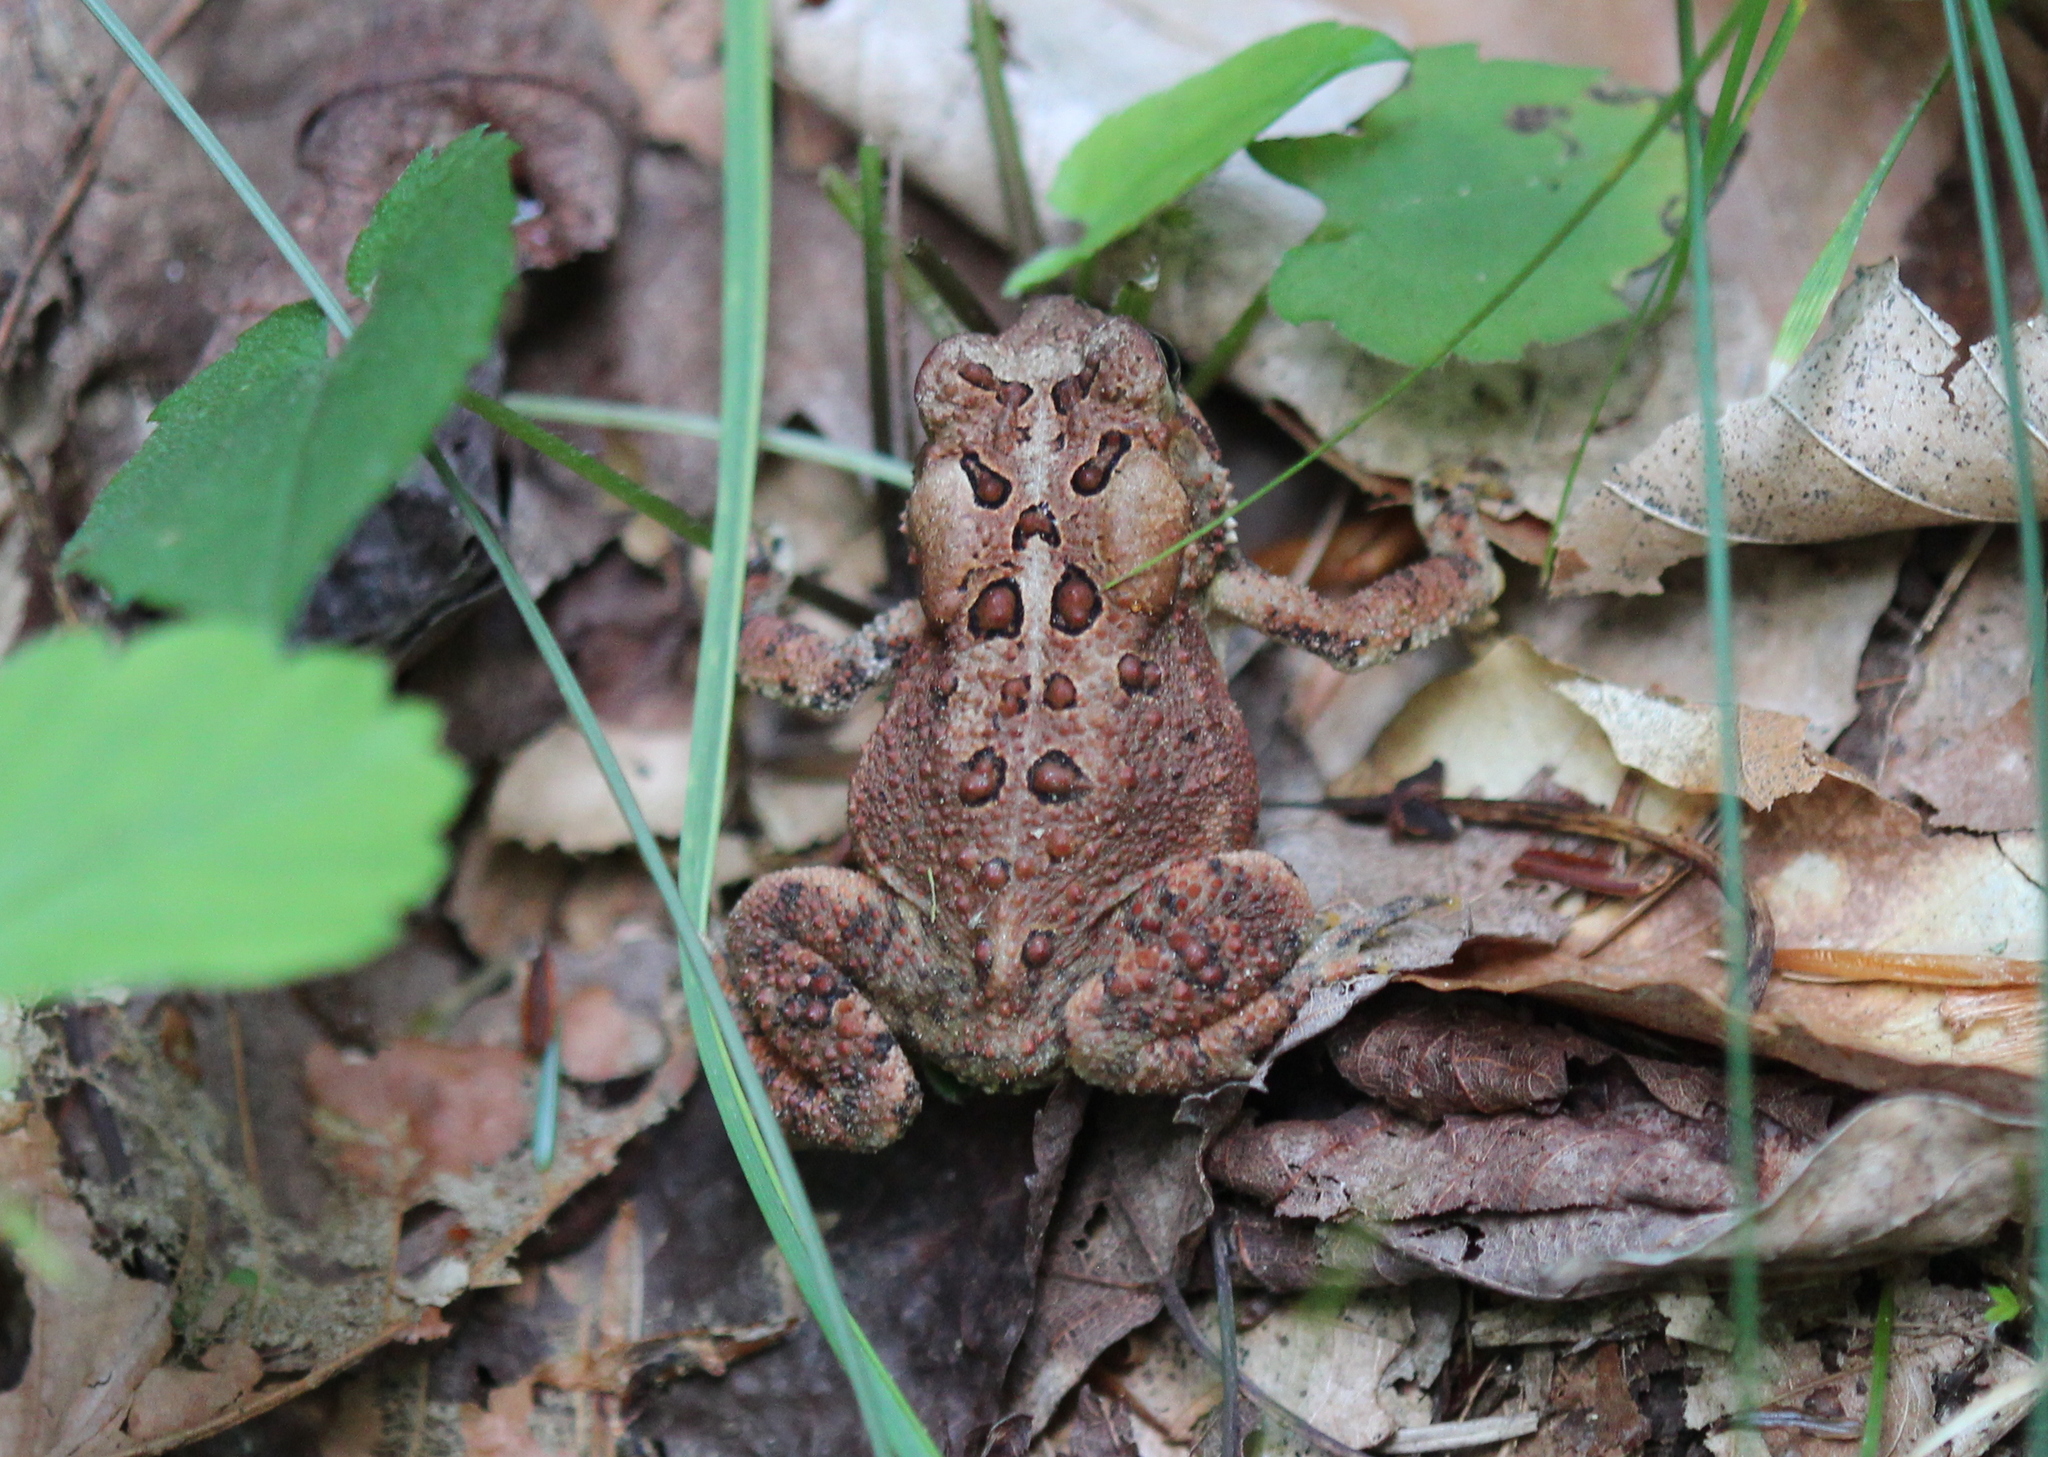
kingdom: Animalia
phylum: Chordata
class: Amphibia
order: Anura
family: Bufonidae
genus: Anaxyrus
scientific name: Anaxyrus americanus
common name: American toad
